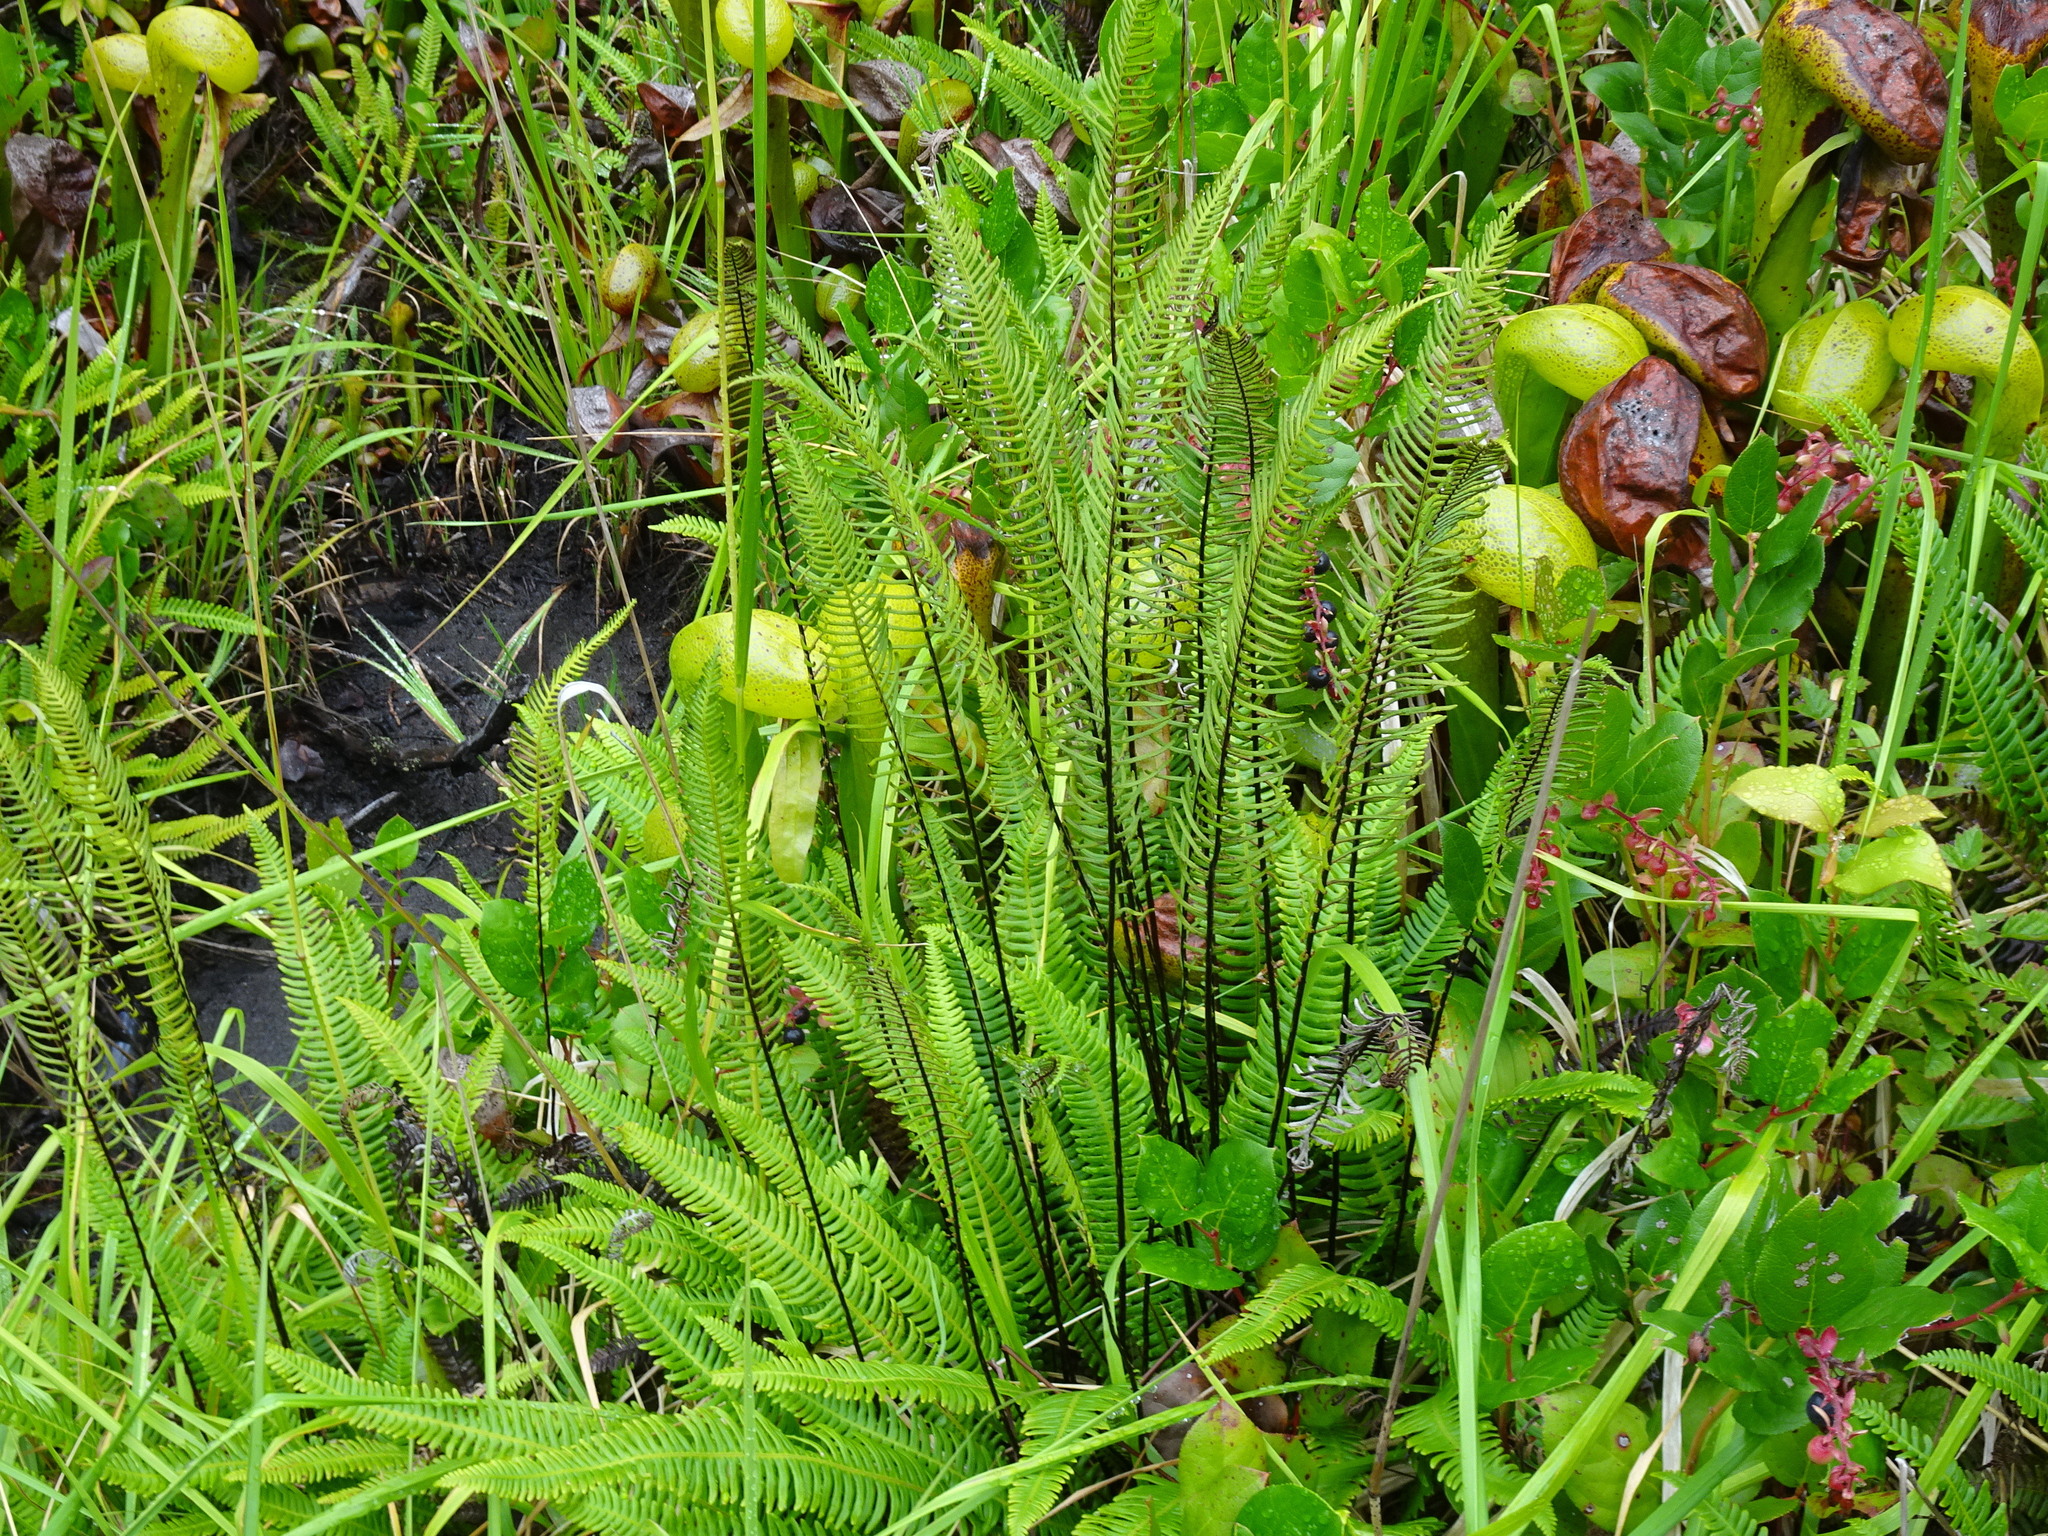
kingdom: Plantae
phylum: Tracheophyta
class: Polypodiopsida
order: Polypodiales
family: Blechnaceae
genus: Struthiopteris
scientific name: Struthiopteris spicant
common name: Deer fern
